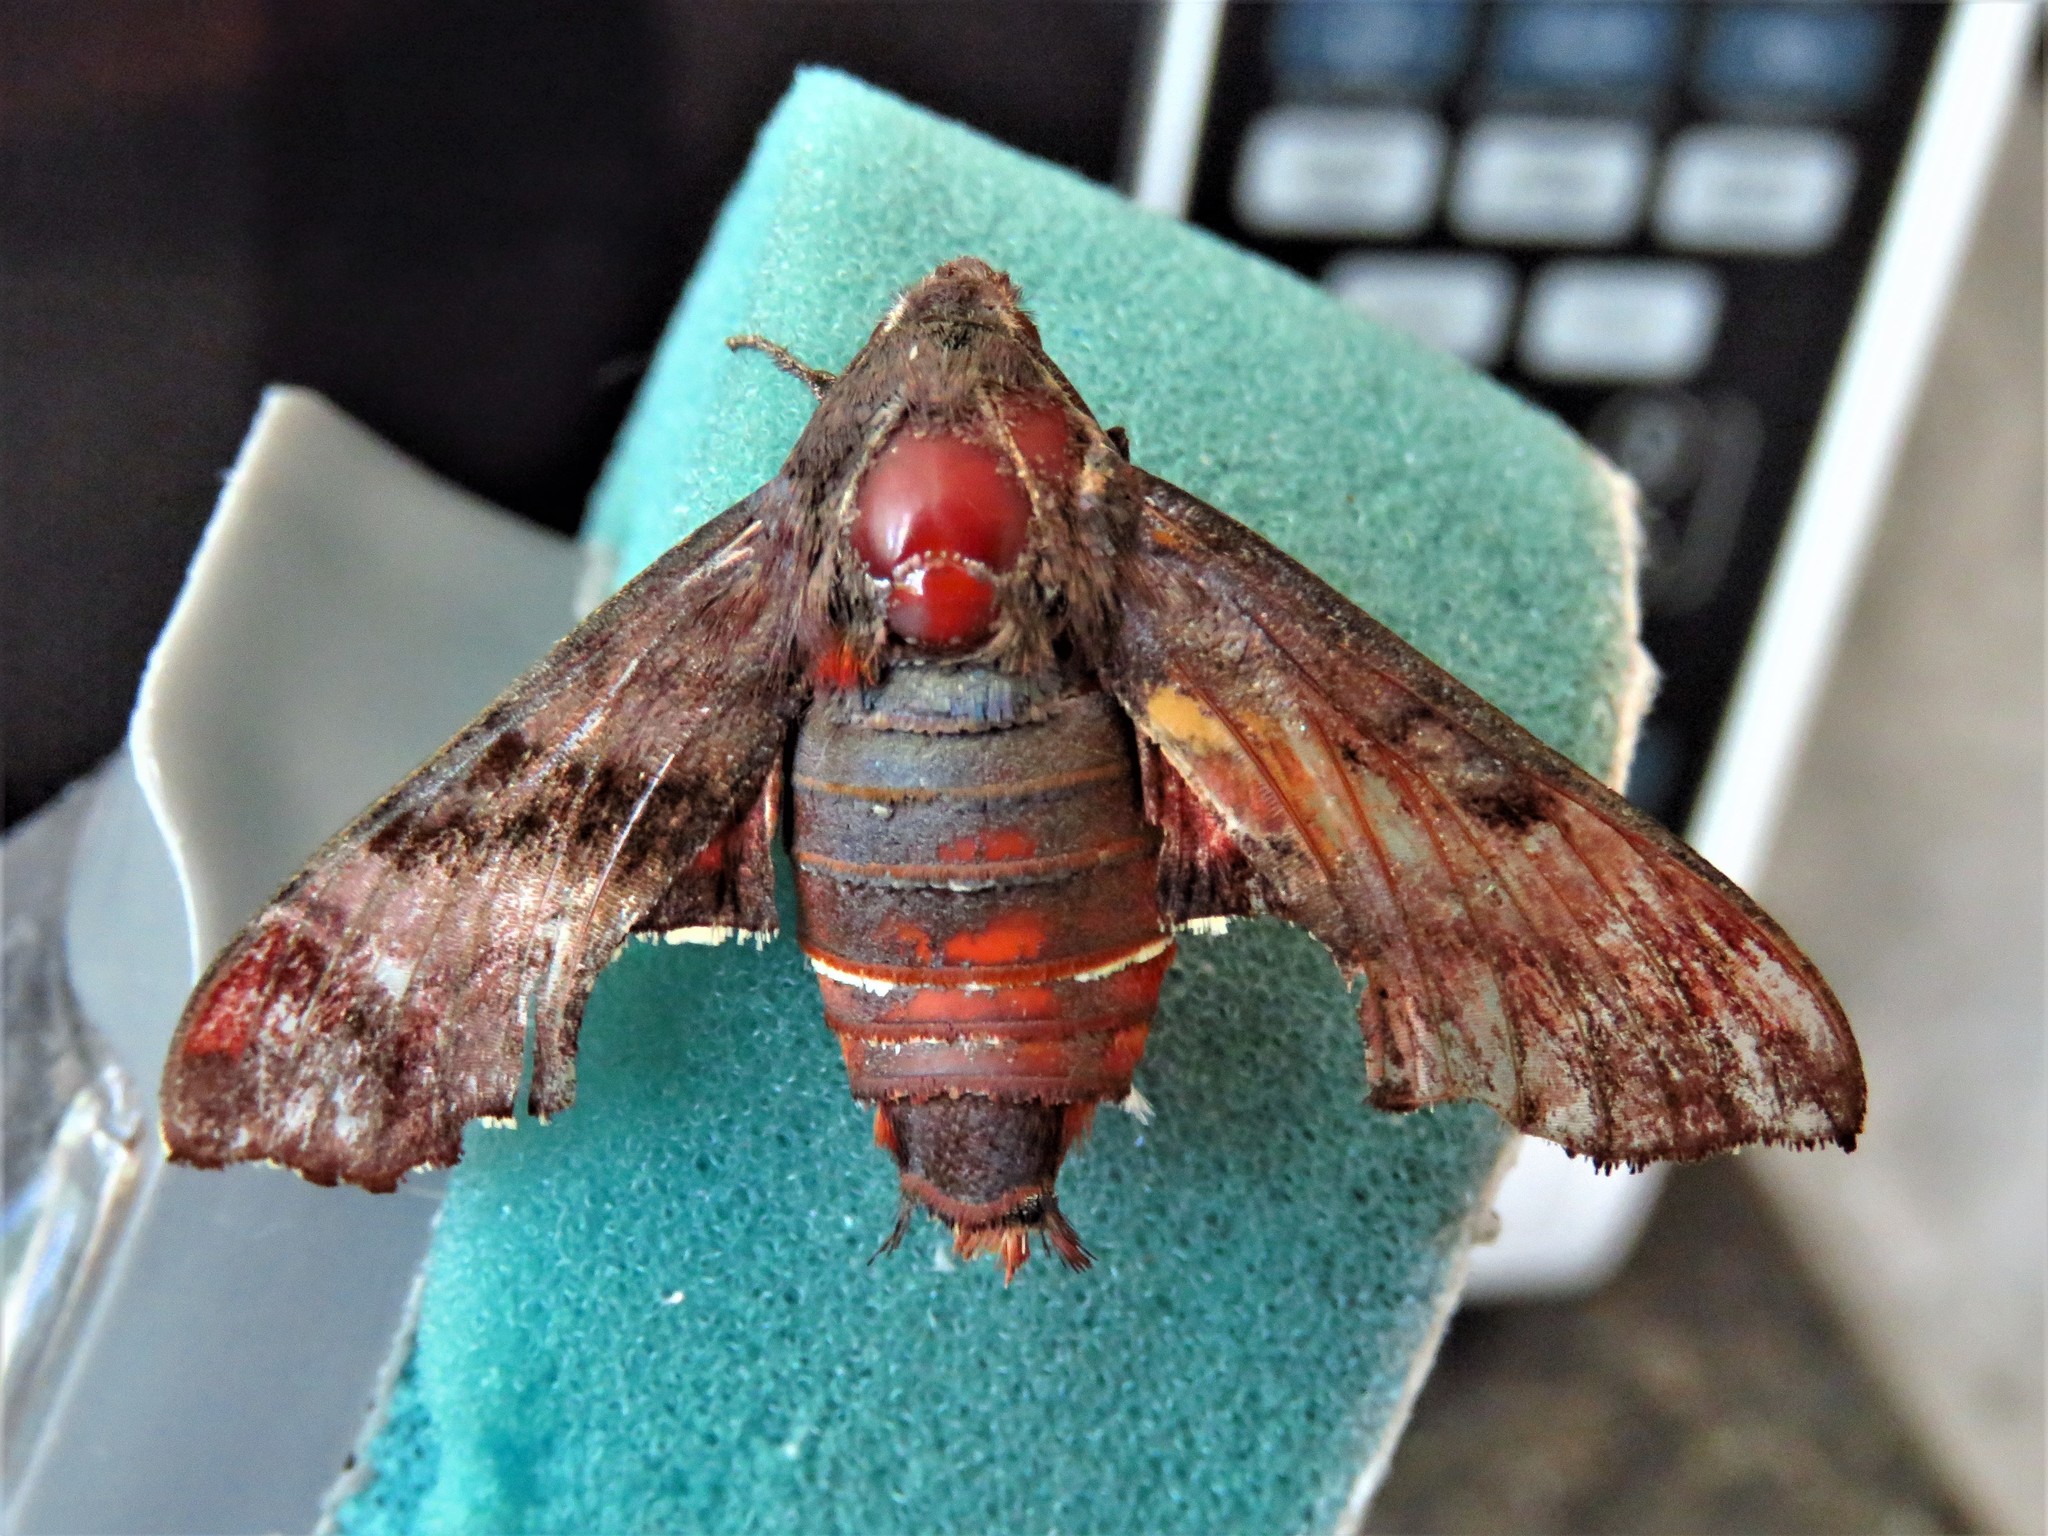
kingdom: Animalia
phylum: Arthropoda
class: Insecta
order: Lepidoptera
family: Sphingidae
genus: Amphion
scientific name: Amphion floridensis
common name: Nessus sphinx
